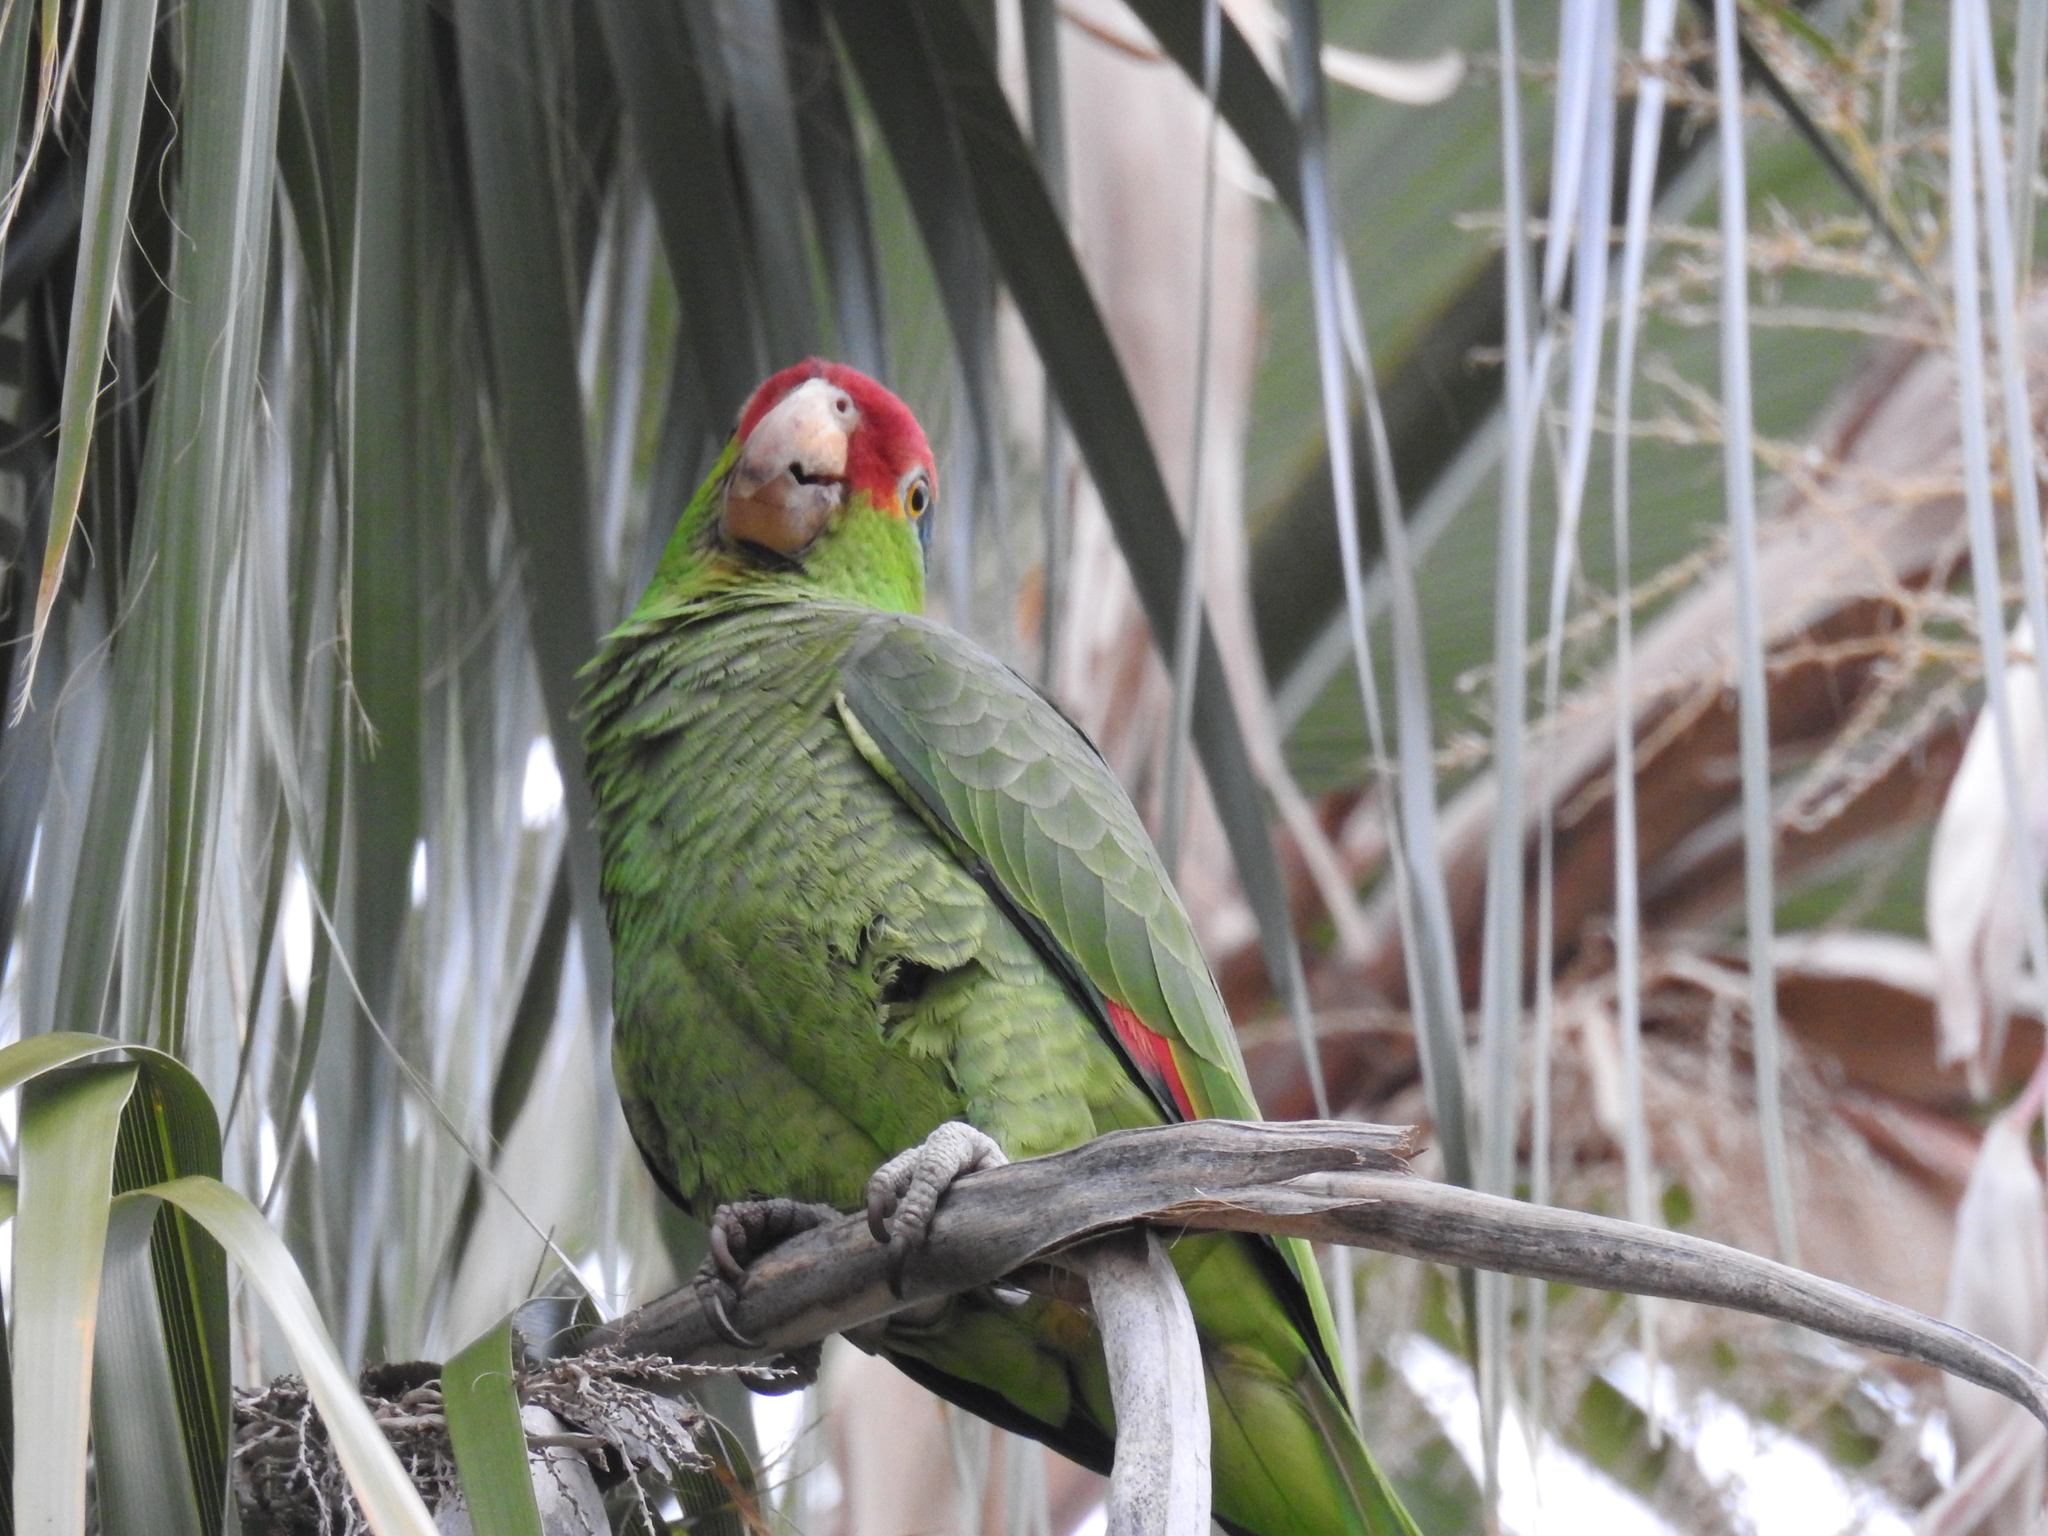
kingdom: Animalia
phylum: Chordata
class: Aves
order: Psittaciformes
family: Psittacidae
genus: Amazona
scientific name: Amazona viridigenalis
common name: Red-crowned amazon
